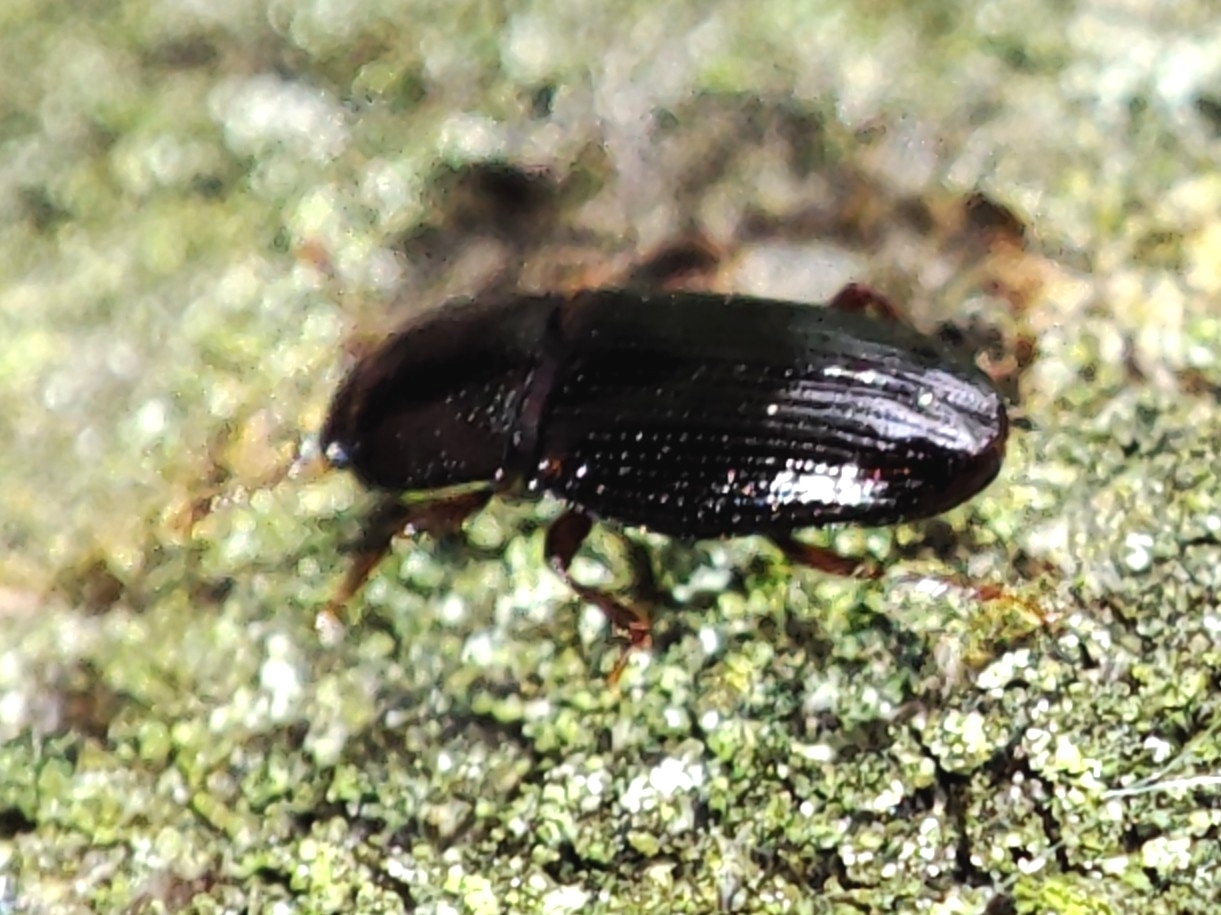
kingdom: Animalia
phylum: Arthropoda
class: Insecta
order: Coleoptera
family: Cerylonidae
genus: Cerylon
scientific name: Cerylon histeroides
